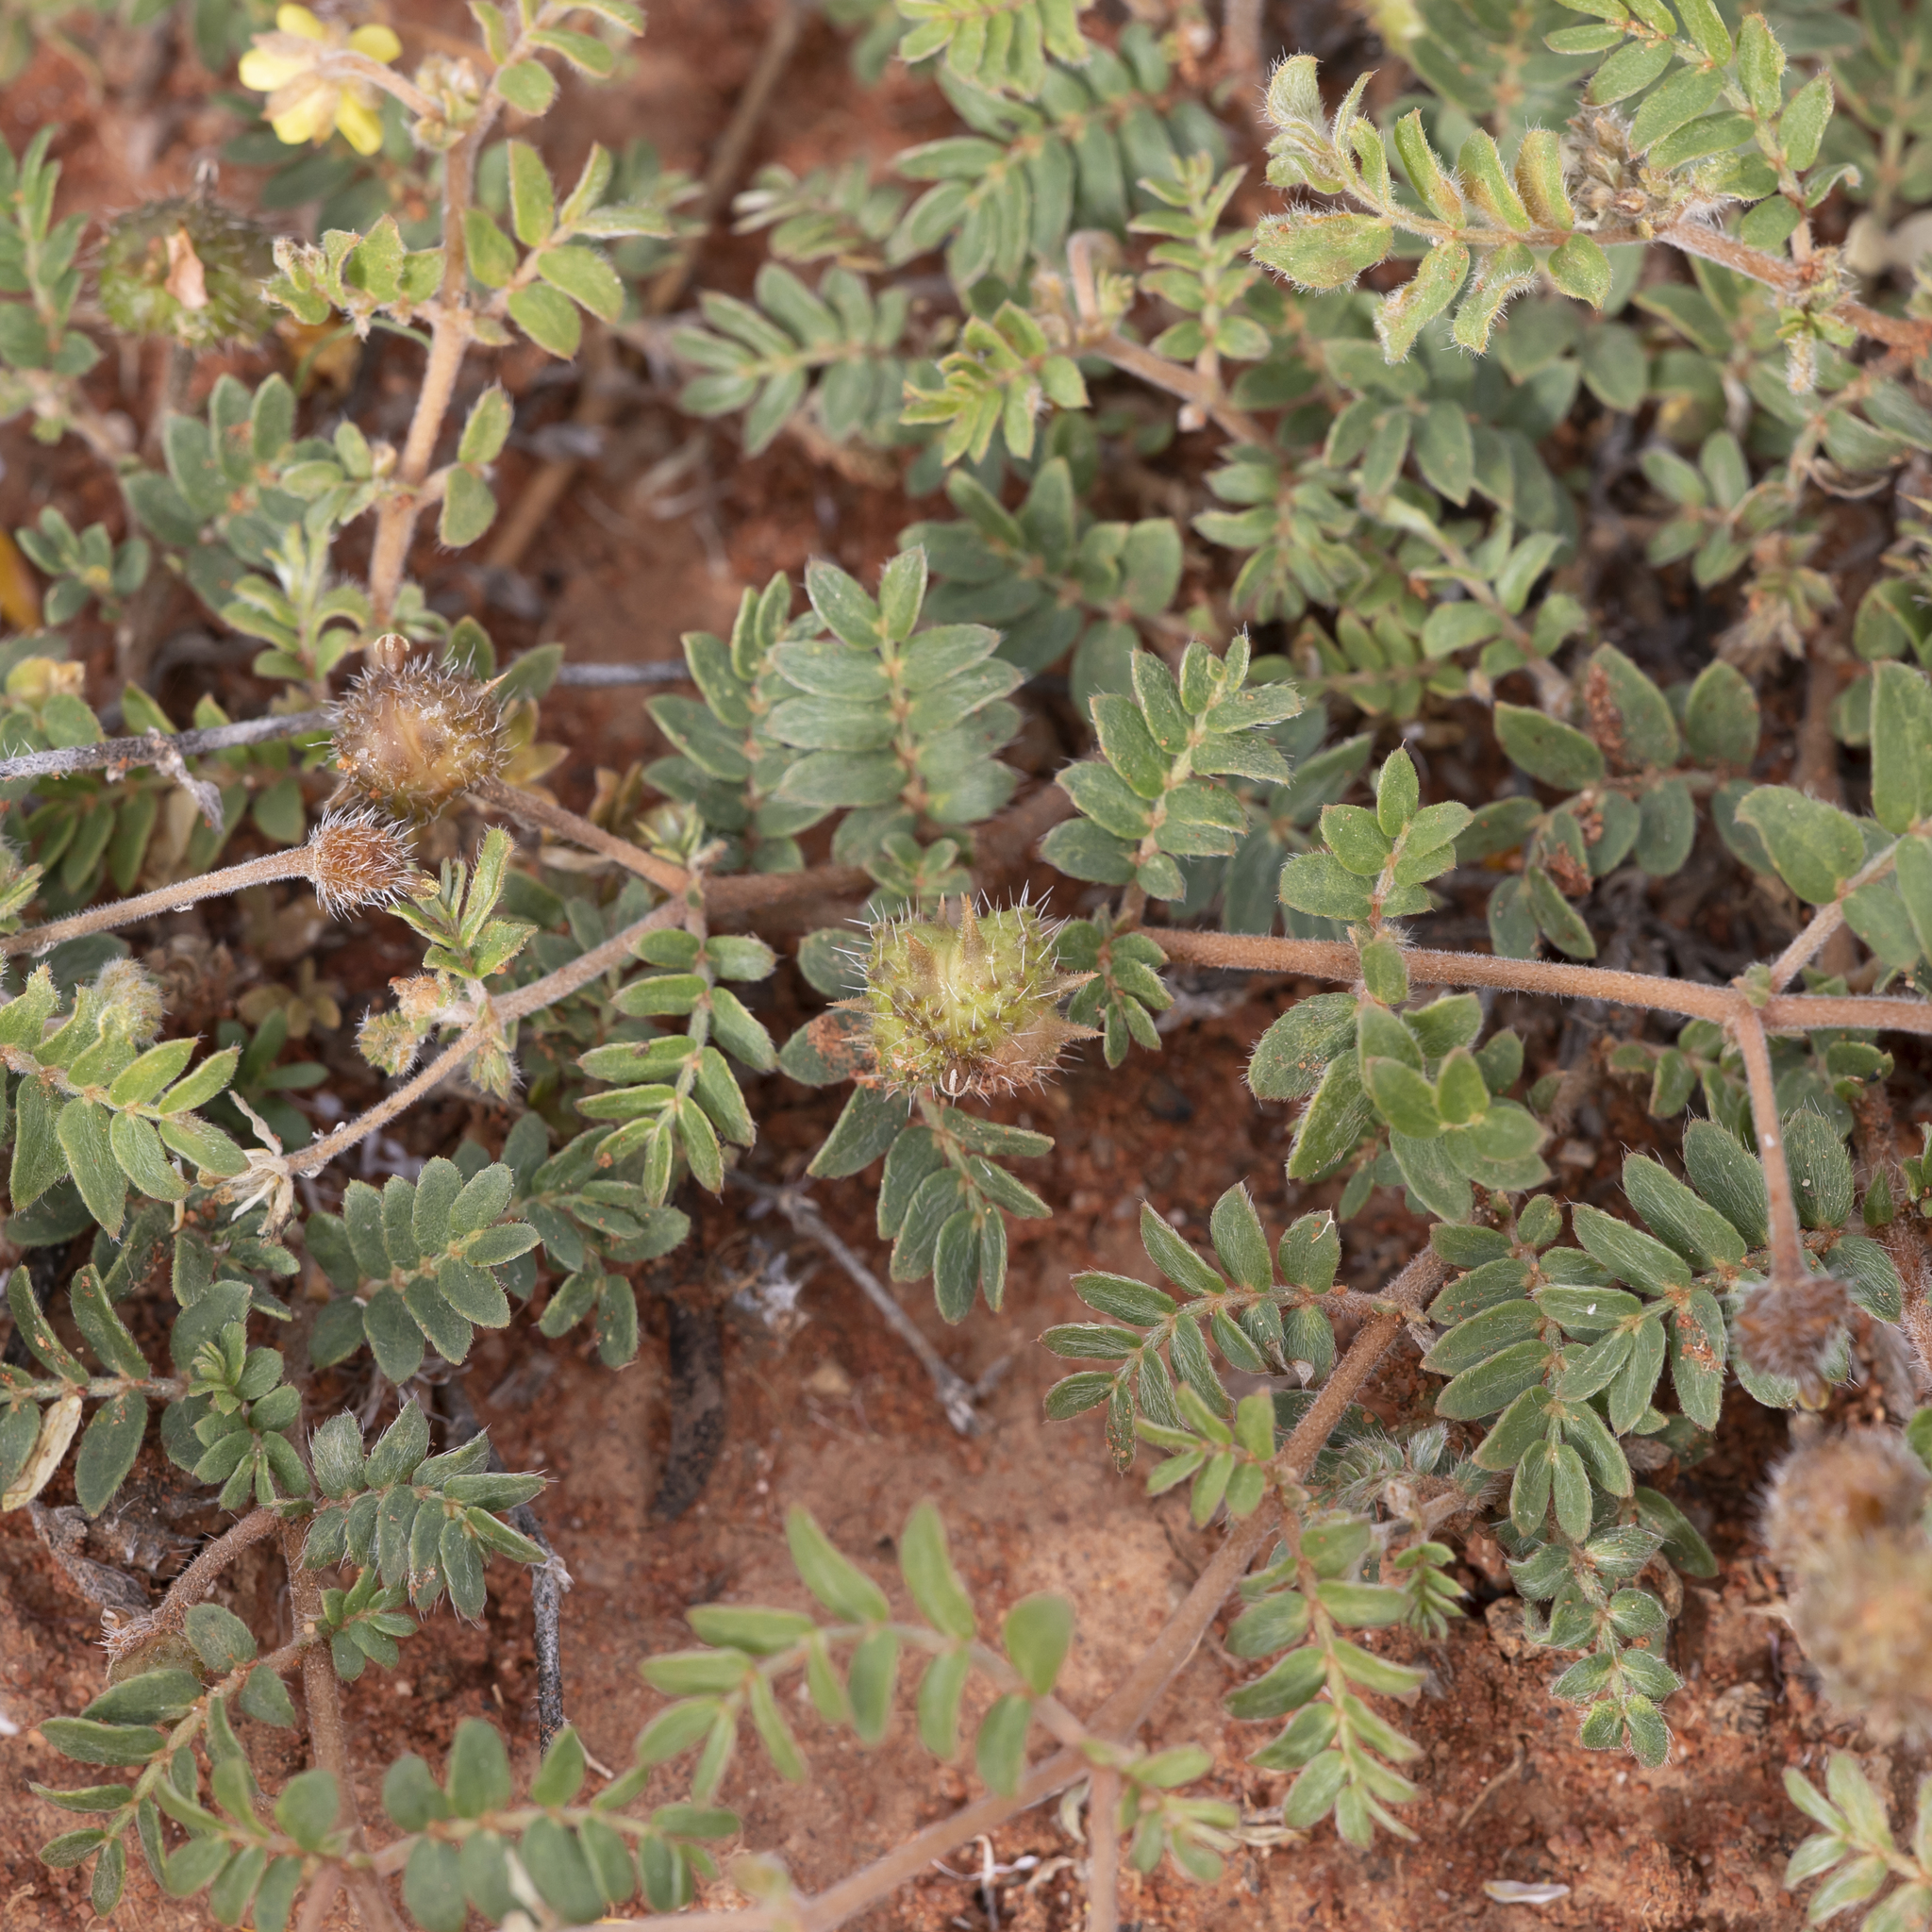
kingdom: Plantae
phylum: Tracheophyta
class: Magnoliopsida
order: Zygophyllales
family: Zygophyllaceae
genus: Tribulus
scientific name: Tribulus terrestris
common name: Puncturevine
